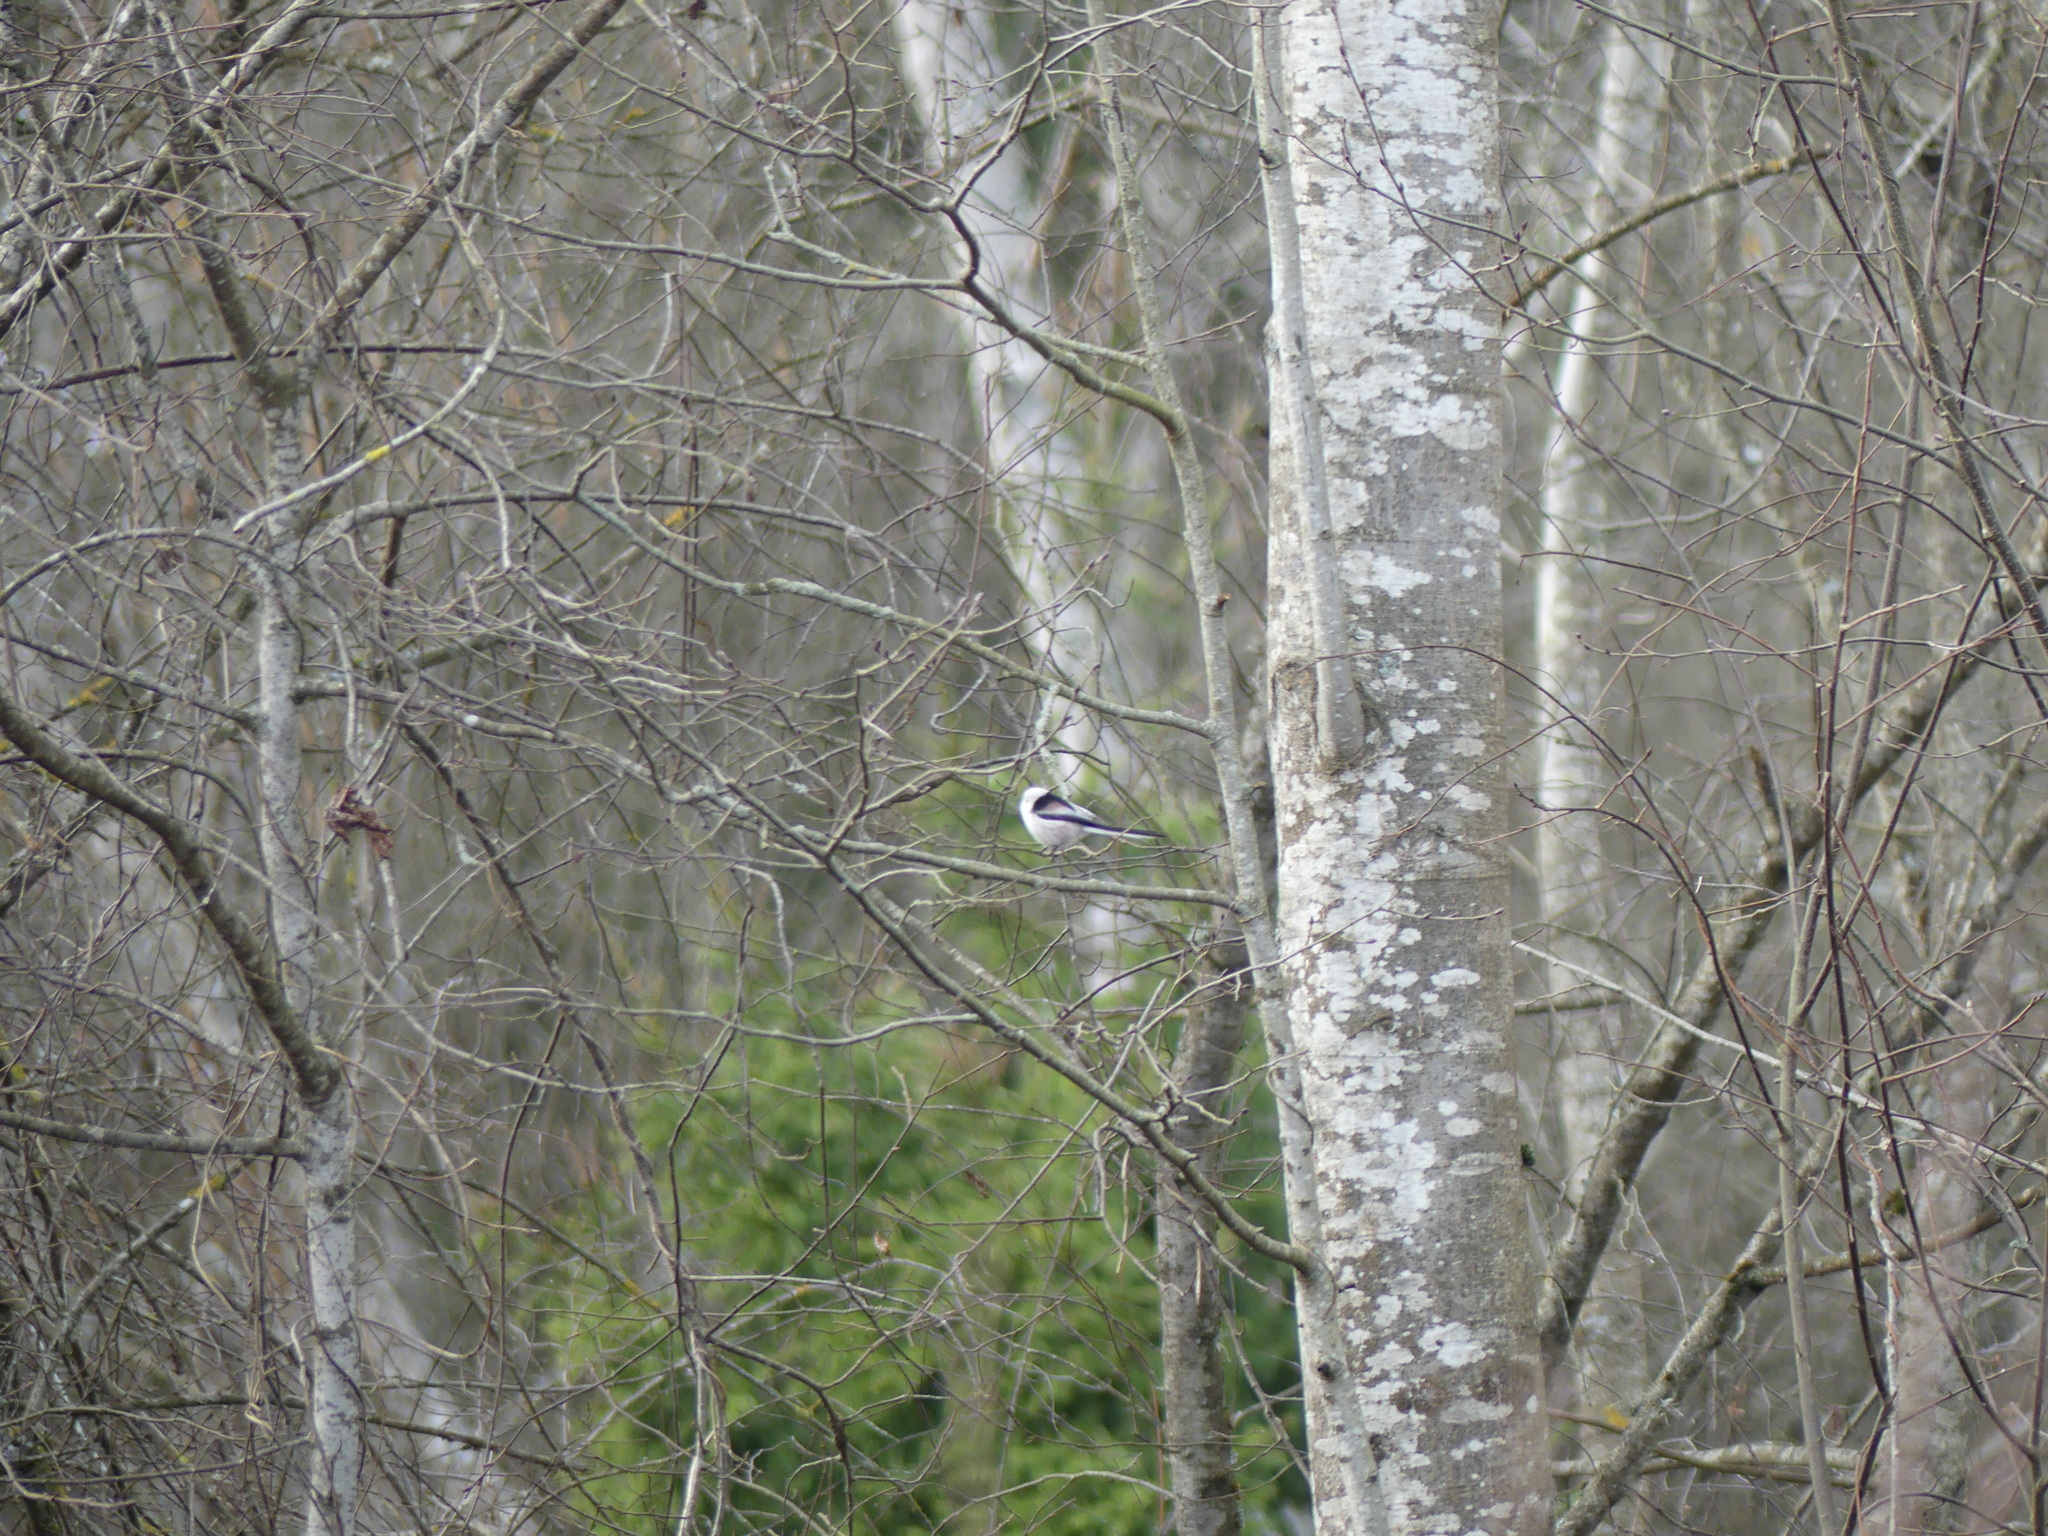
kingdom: Animalia
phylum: Chordata
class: Aves
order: Passeriformes
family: Aegithalidae
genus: Aegithalos
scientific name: Aegithalos caudatus
